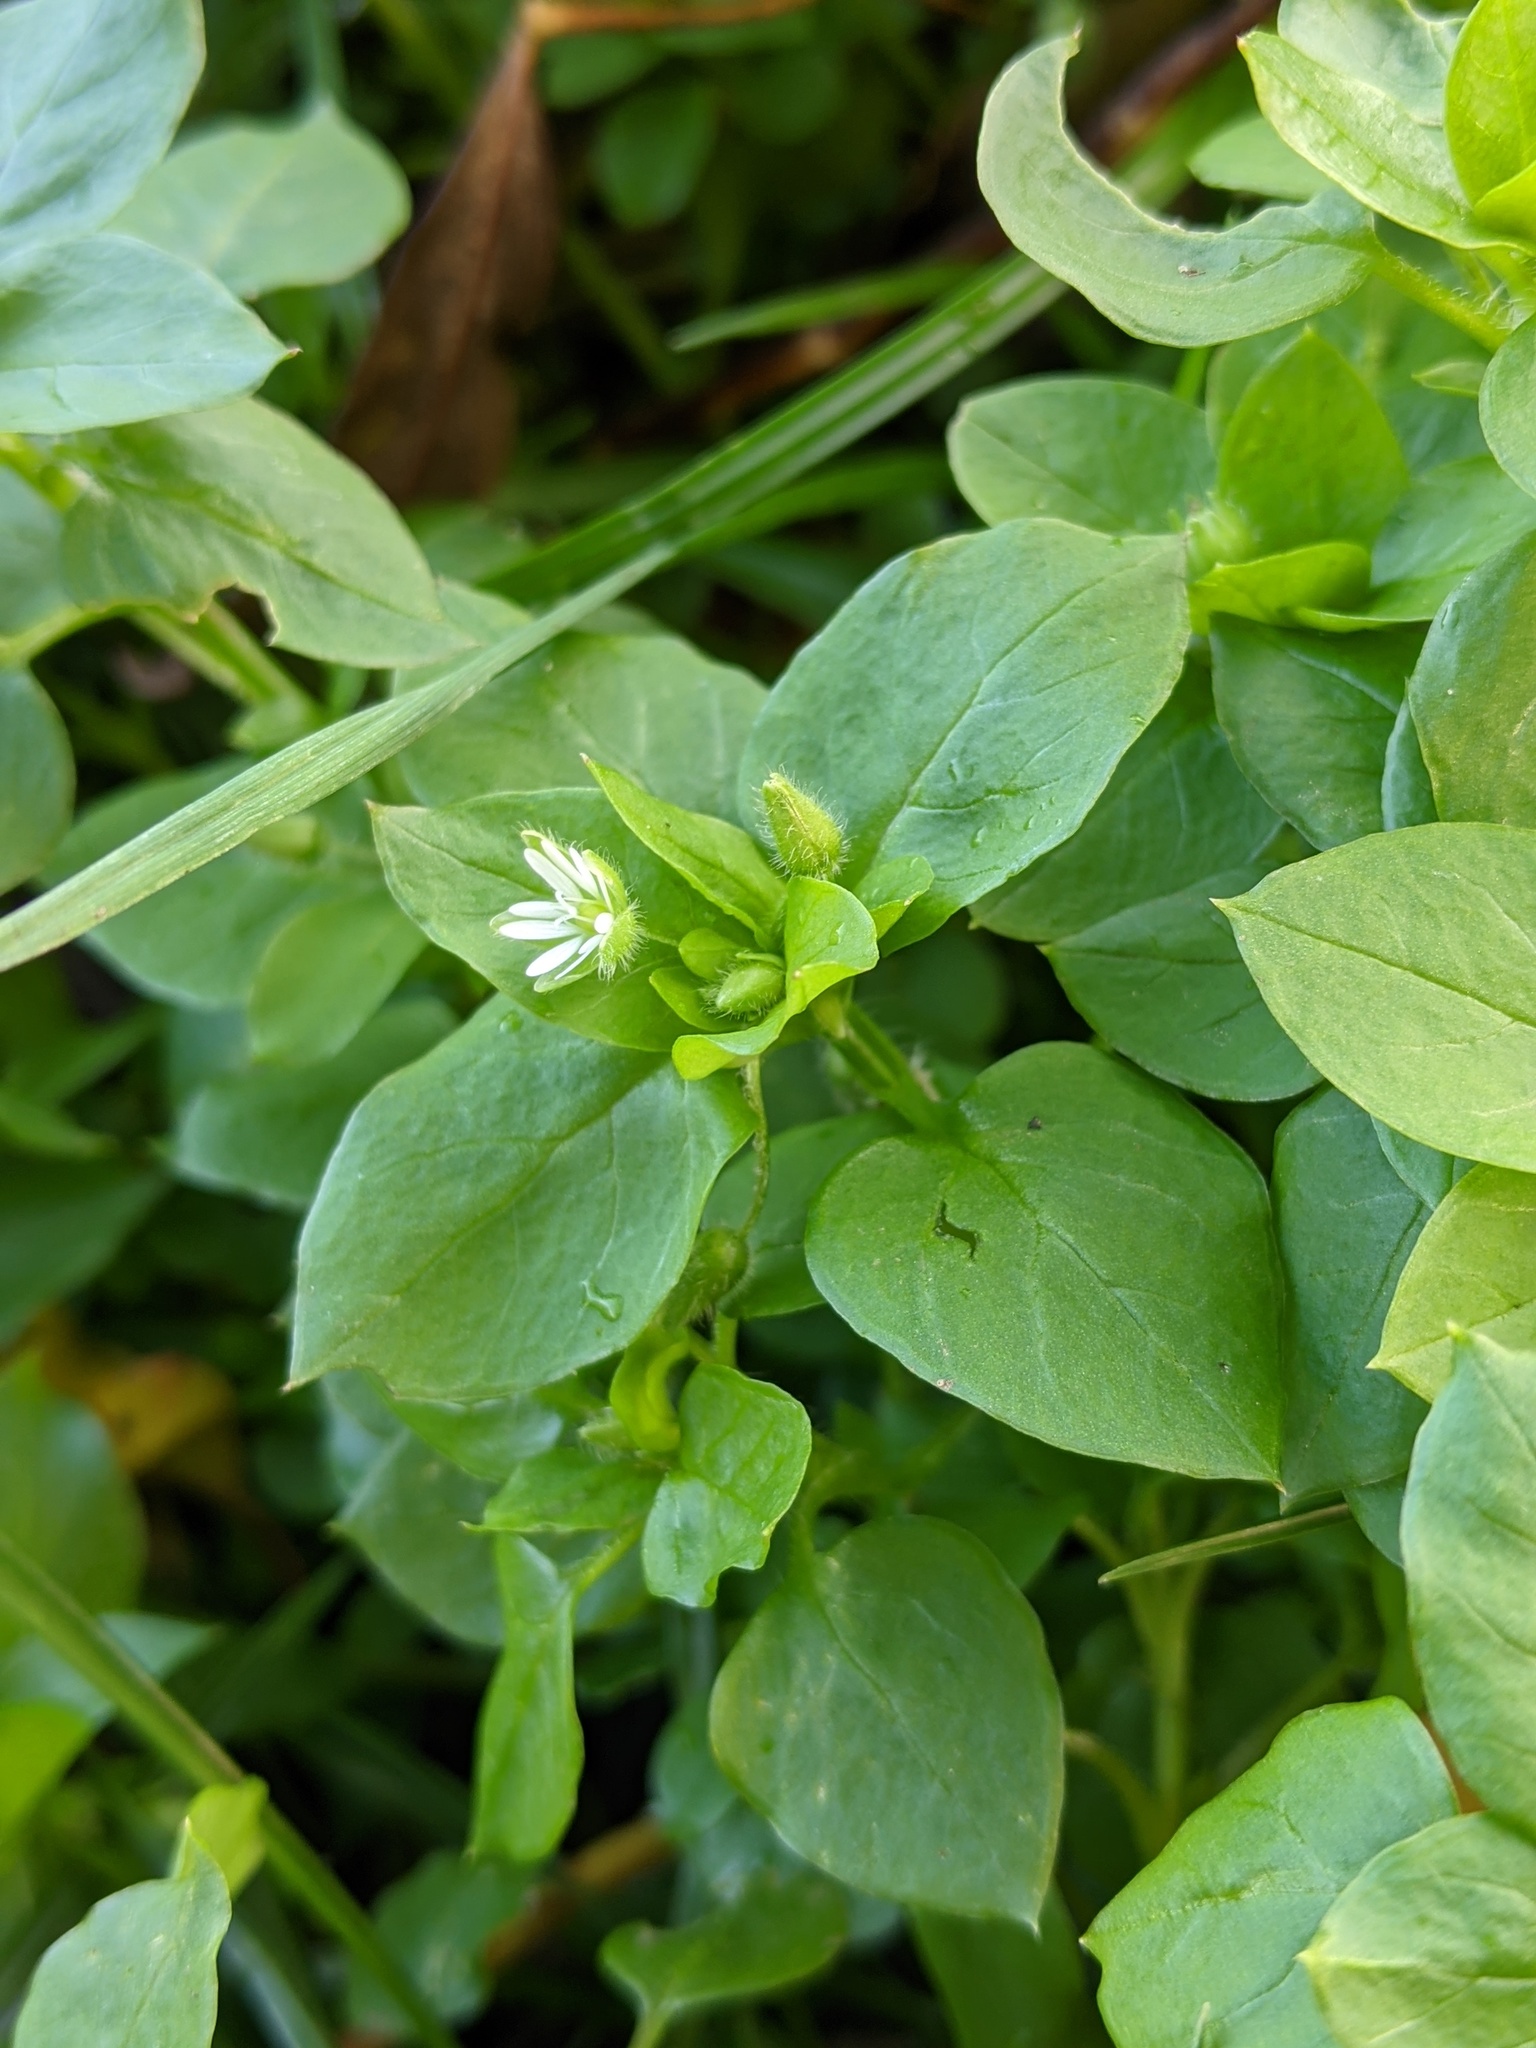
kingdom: Plantae
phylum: Tracheophyta
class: Magnoliopsida
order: Caryophyllales
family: Caryophyllaceae
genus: Stellaria
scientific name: Stellaria media
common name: Common chickweed
